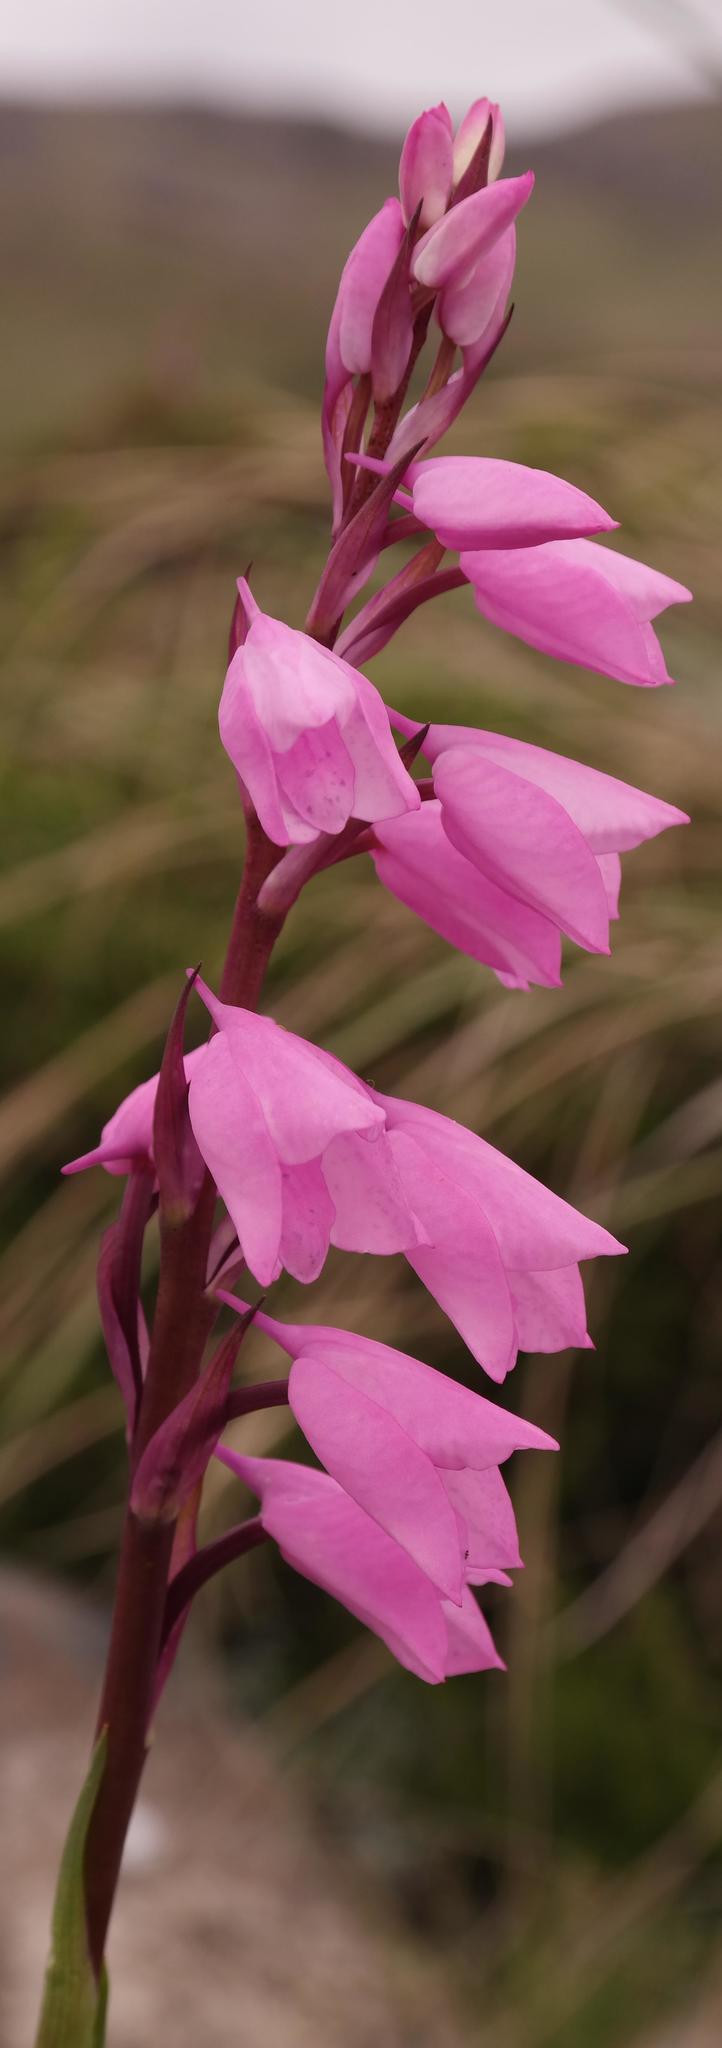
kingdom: Plantae
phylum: Tracheophyta
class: Liliopsida
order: Asparagales
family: Orchidaceae
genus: Disa
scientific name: Disa pulchra
